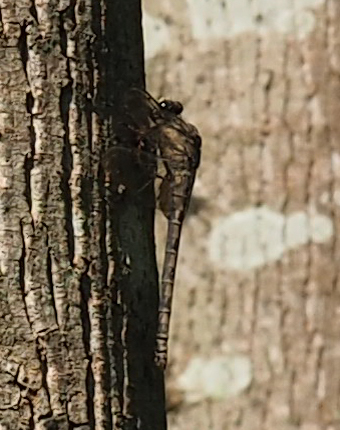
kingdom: Animalia
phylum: Arthropoda
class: Insecta
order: Odonata
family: Petaluridae
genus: Tachopteryx
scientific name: Tachopteryx thoreyi
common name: Gray petaltail
